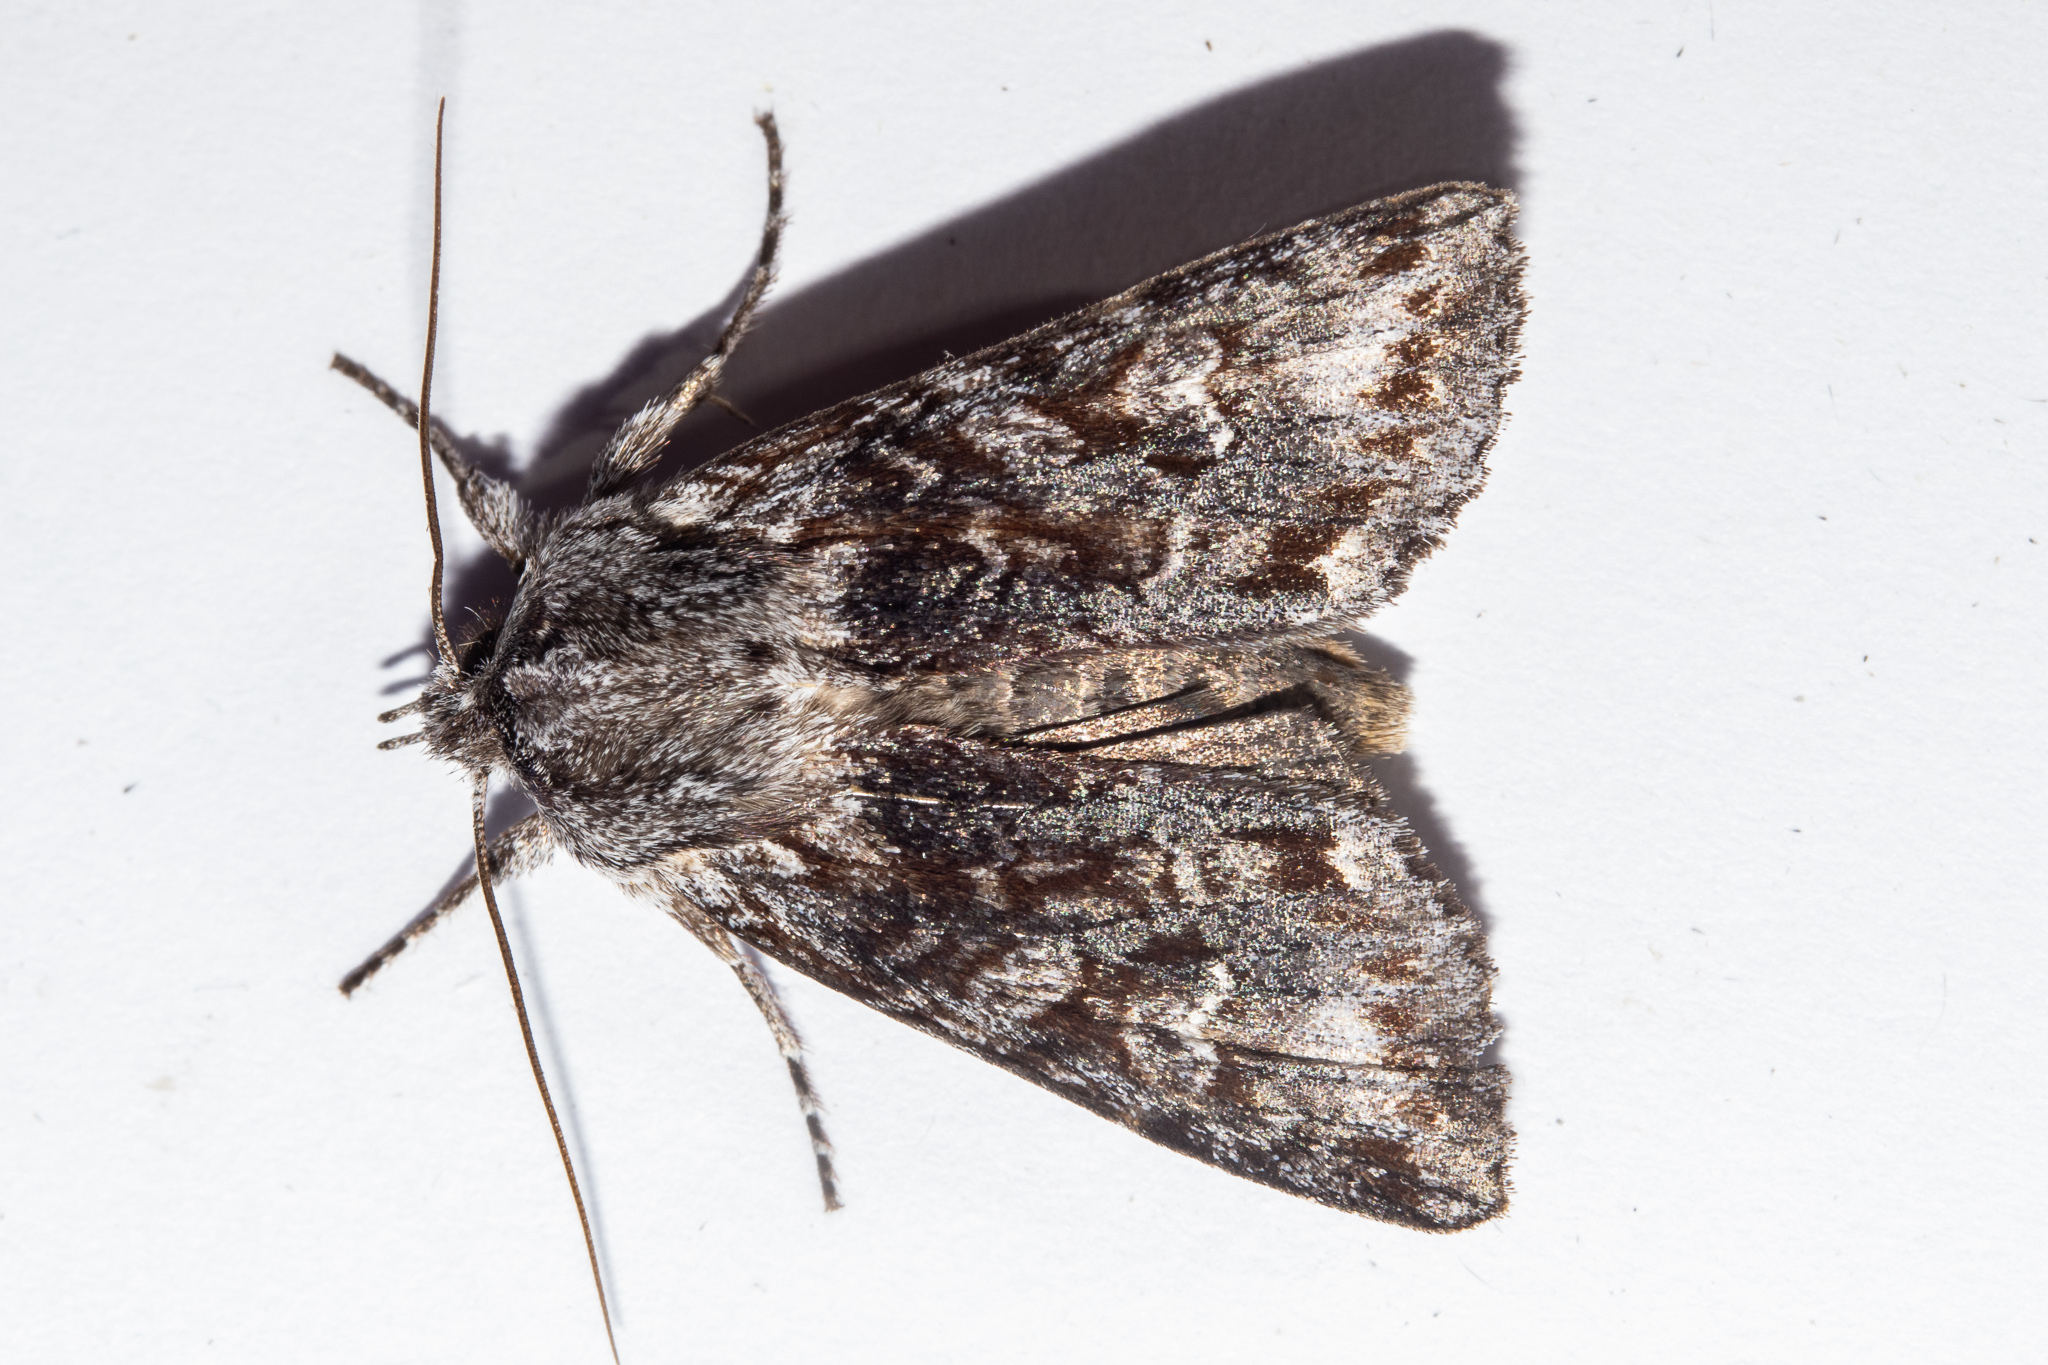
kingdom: Animalia
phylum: Arthropoda
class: Insecta
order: Lepidoptera
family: Noctuidae
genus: Physetica
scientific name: Physetica longstaffii
